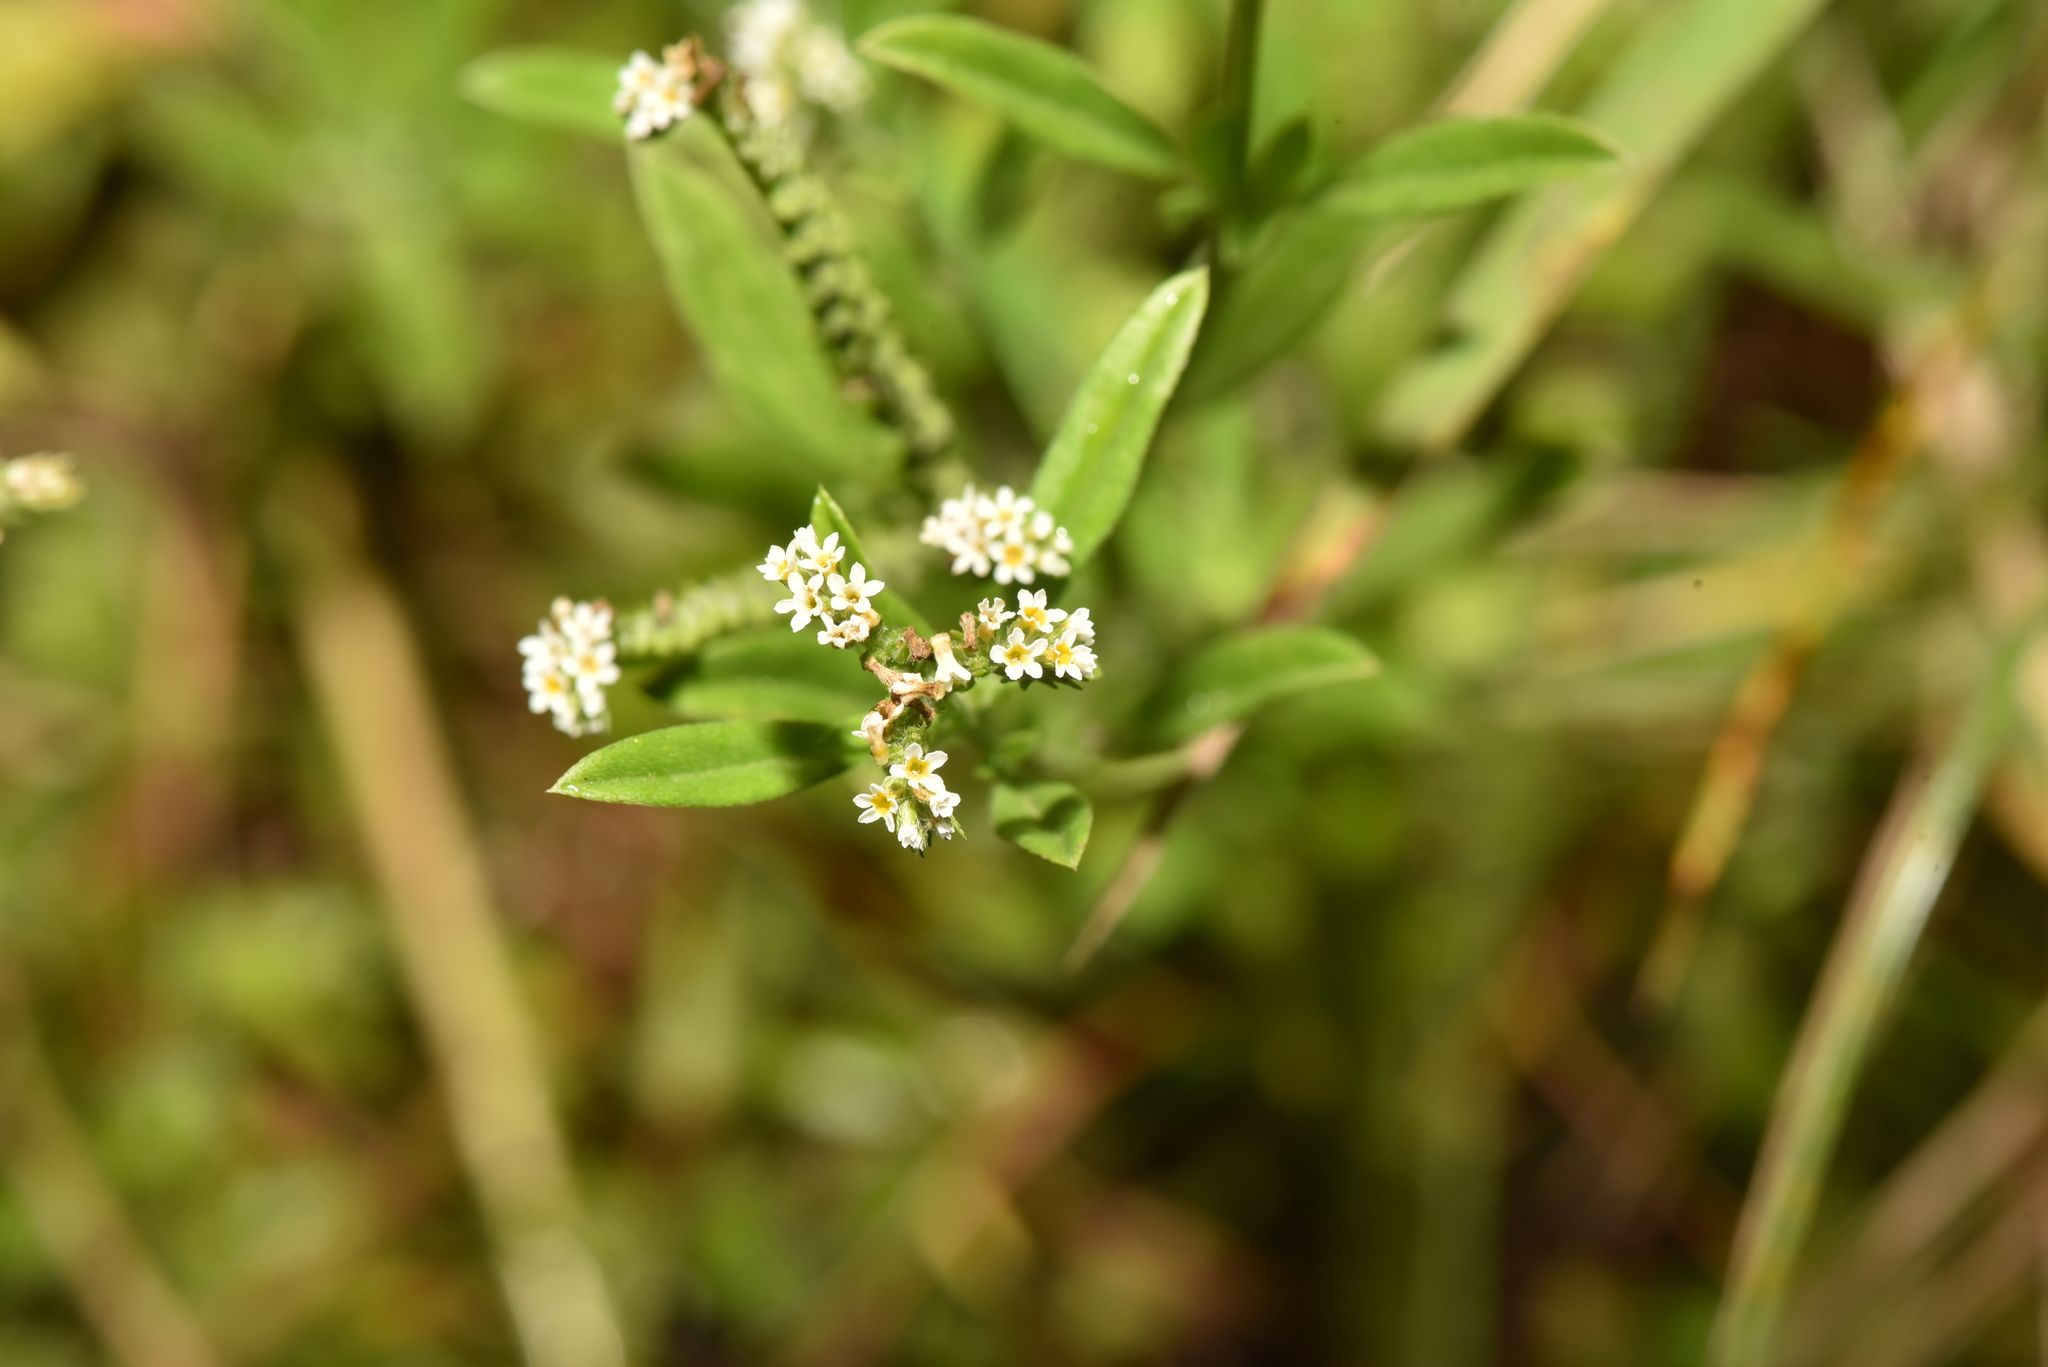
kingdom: Plantae
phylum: Tracheophyta
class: Magnoliopsida
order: Boraginales
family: Heliotropiaceae
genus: Euploca
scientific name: Euploca procumbens
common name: Fourspike heliotrope
